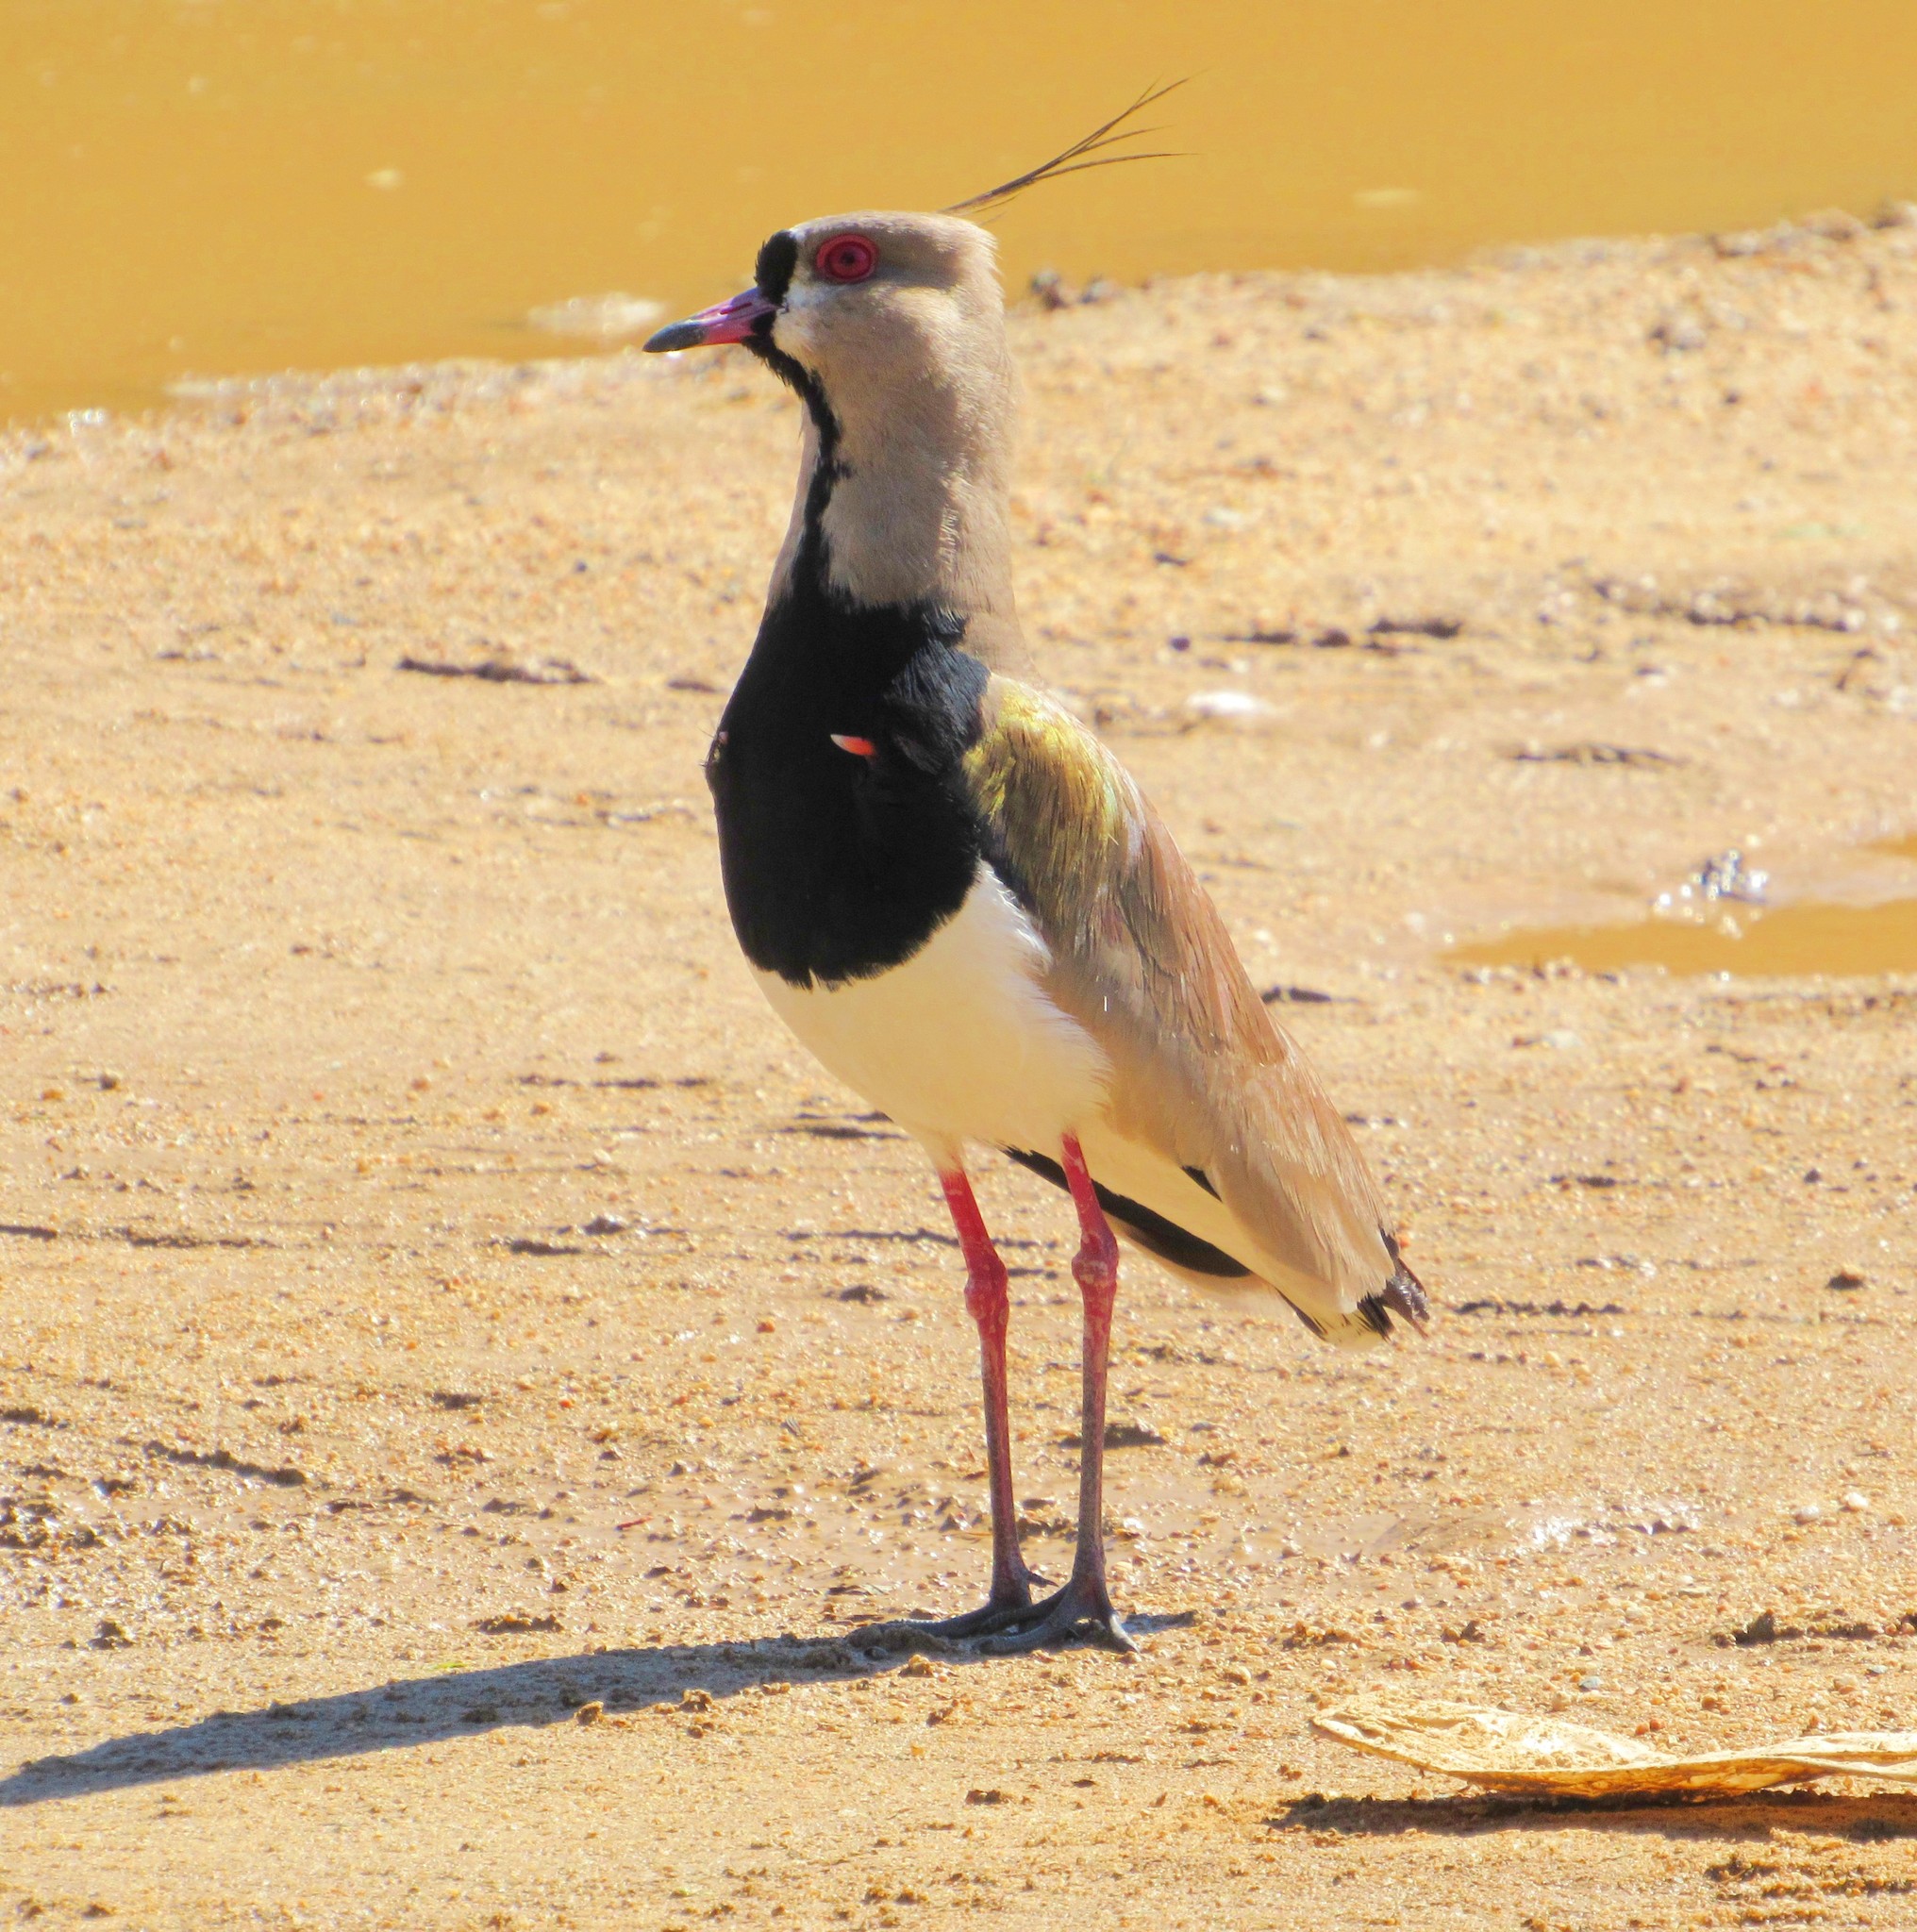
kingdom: Animalia
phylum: Chordata
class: Aves
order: Charadriiformes
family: Charadriidae
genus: Vanellus
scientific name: Vanellus chilensis
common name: Southern lapwing
